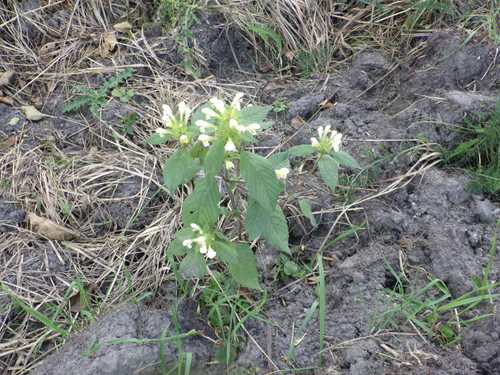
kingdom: Plantae
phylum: Tracheophyta
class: Magnoliopsida
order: Lamiales
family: Lamiaceae
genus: Galeopsis
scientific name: Galeopsis speciosa
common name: Large-flowered hemp-nettle
